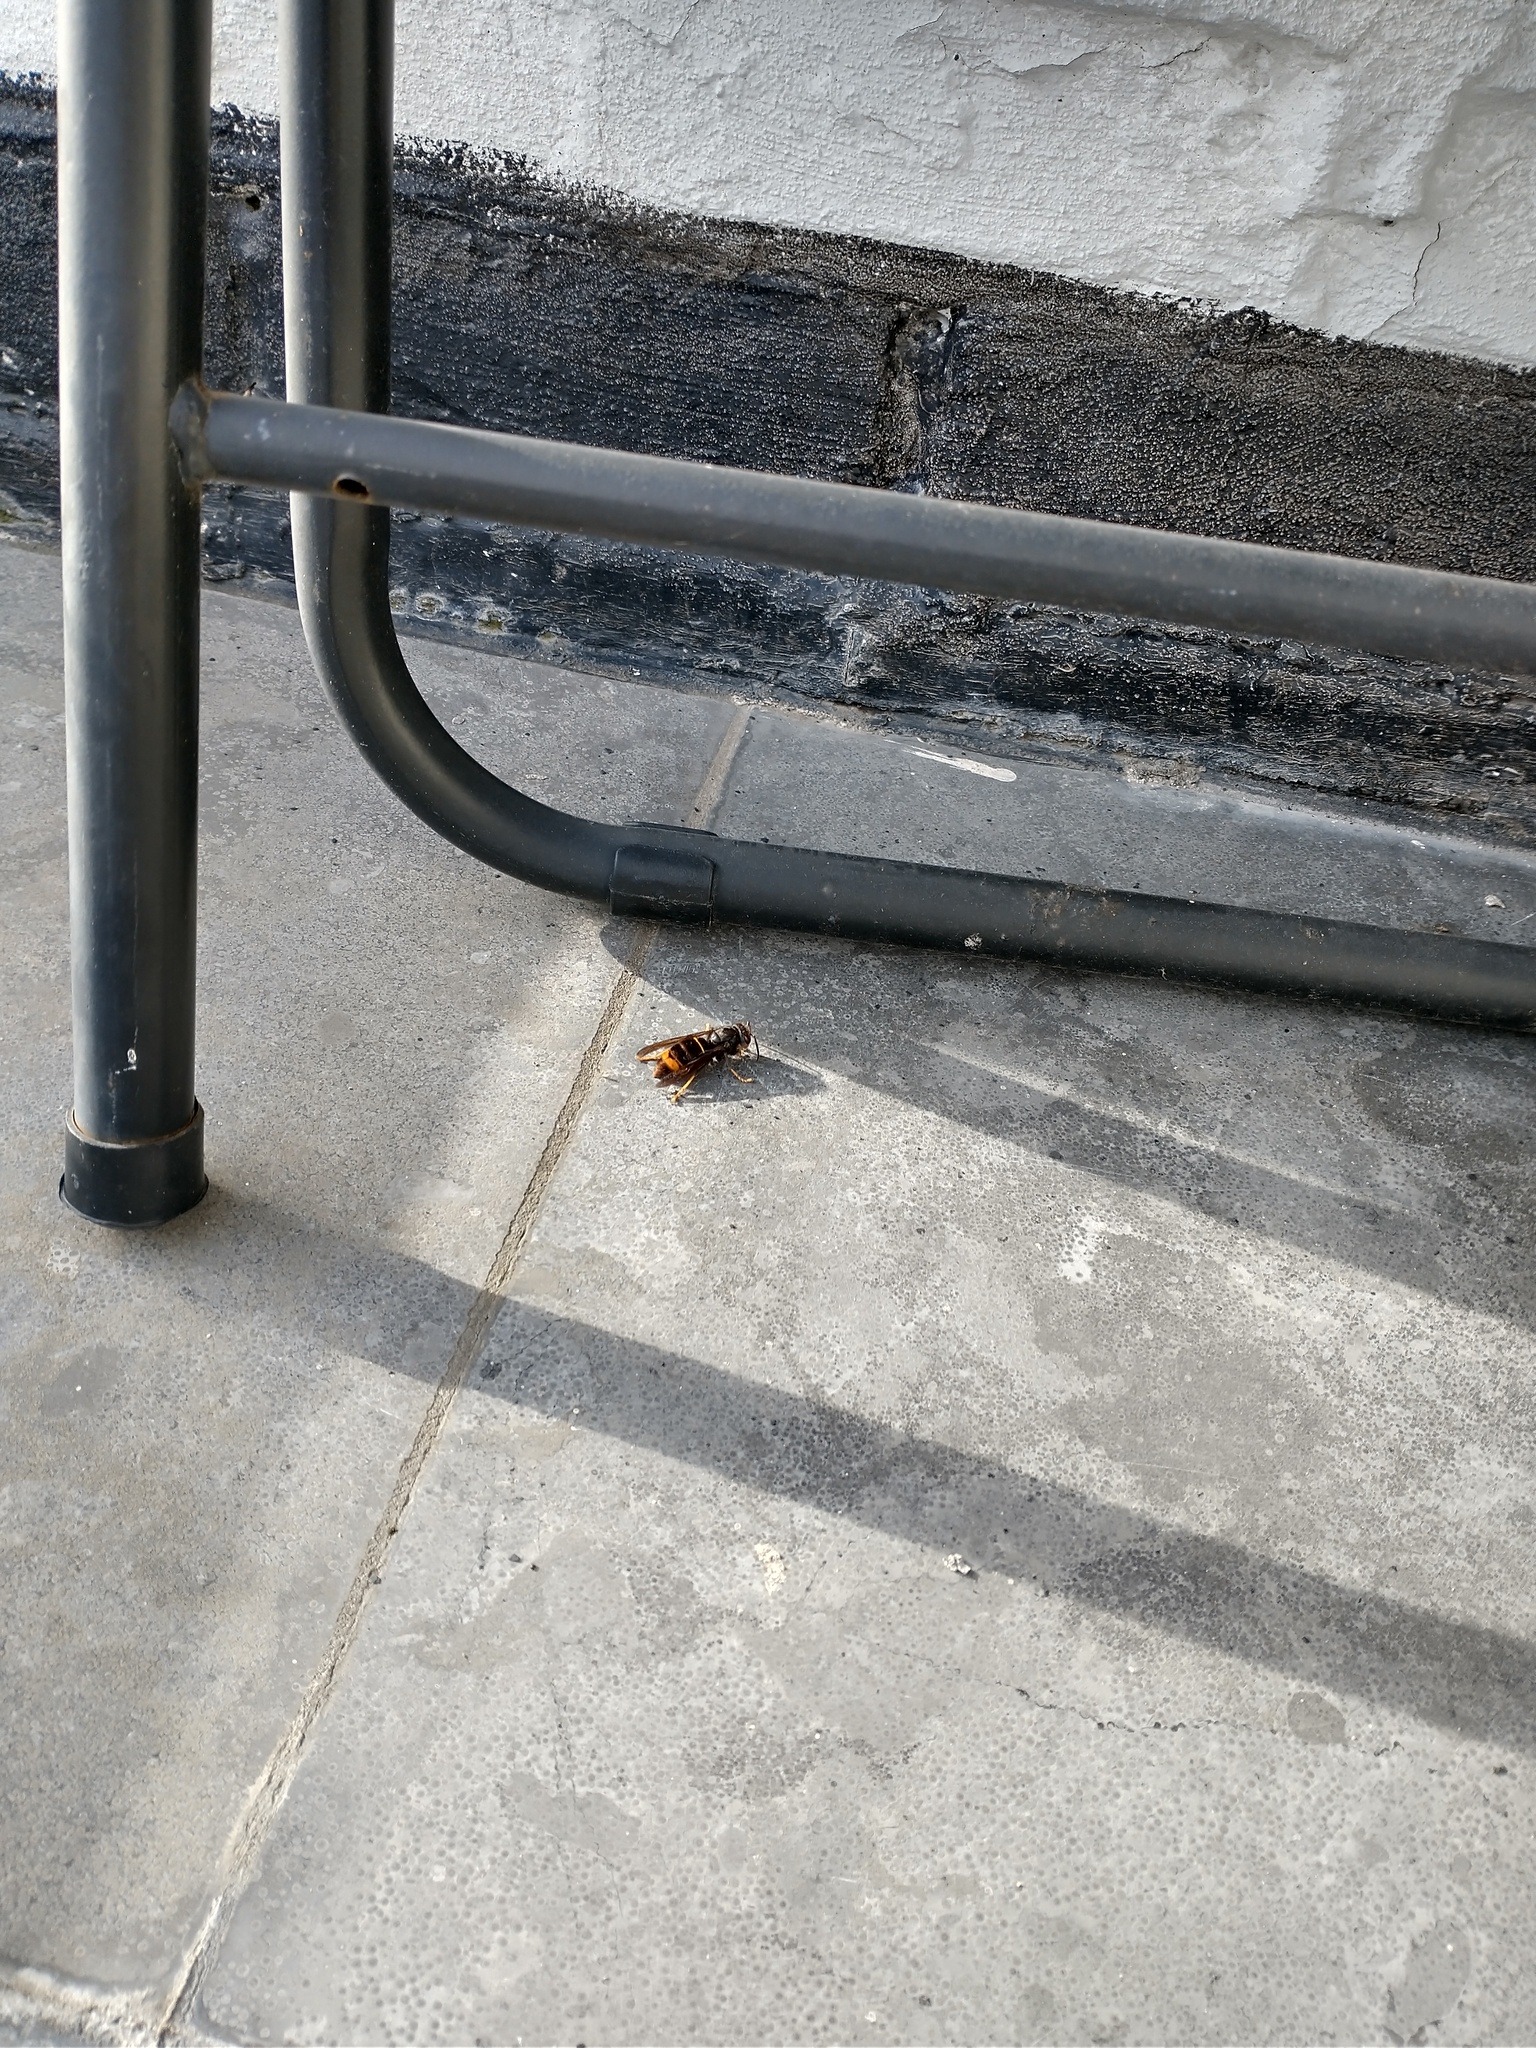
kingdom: Animalia
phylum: Arthropoda
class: Insecta
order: Hymenoptera
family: Vespidae
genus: Vespa
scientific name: Vespa velutina
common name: Asian hornet
